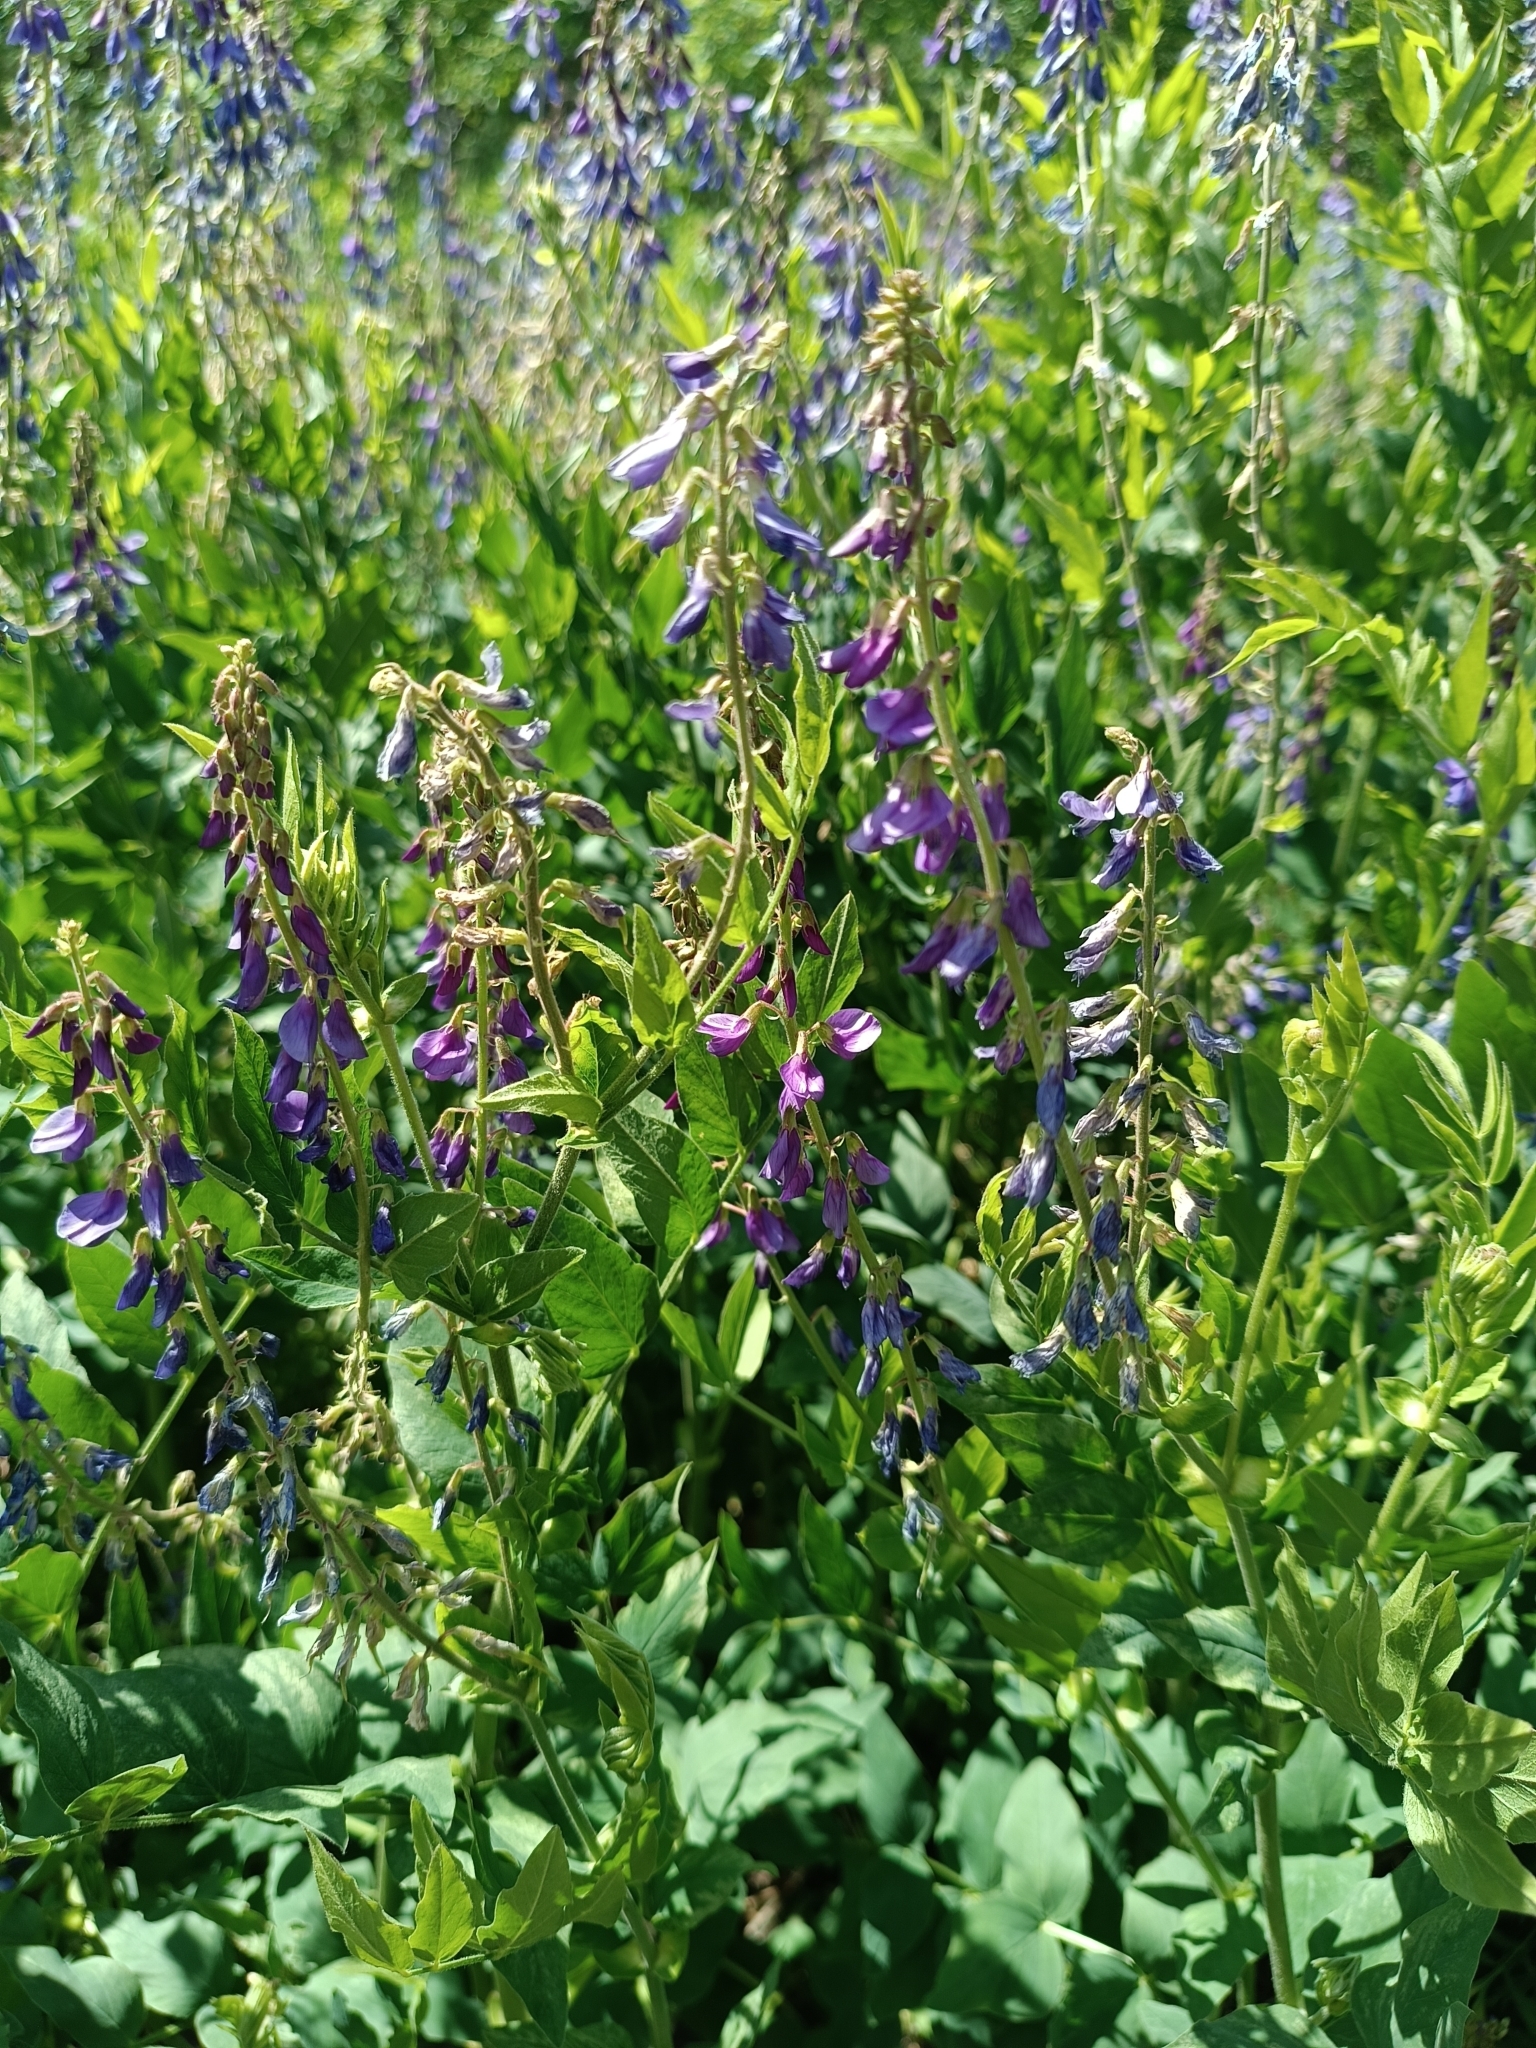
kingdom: Plantae
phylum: Tracheophyta
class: Magnoliopsida
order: Fabales
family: Fabaceae
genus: Galega
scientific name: Galega orientalis
